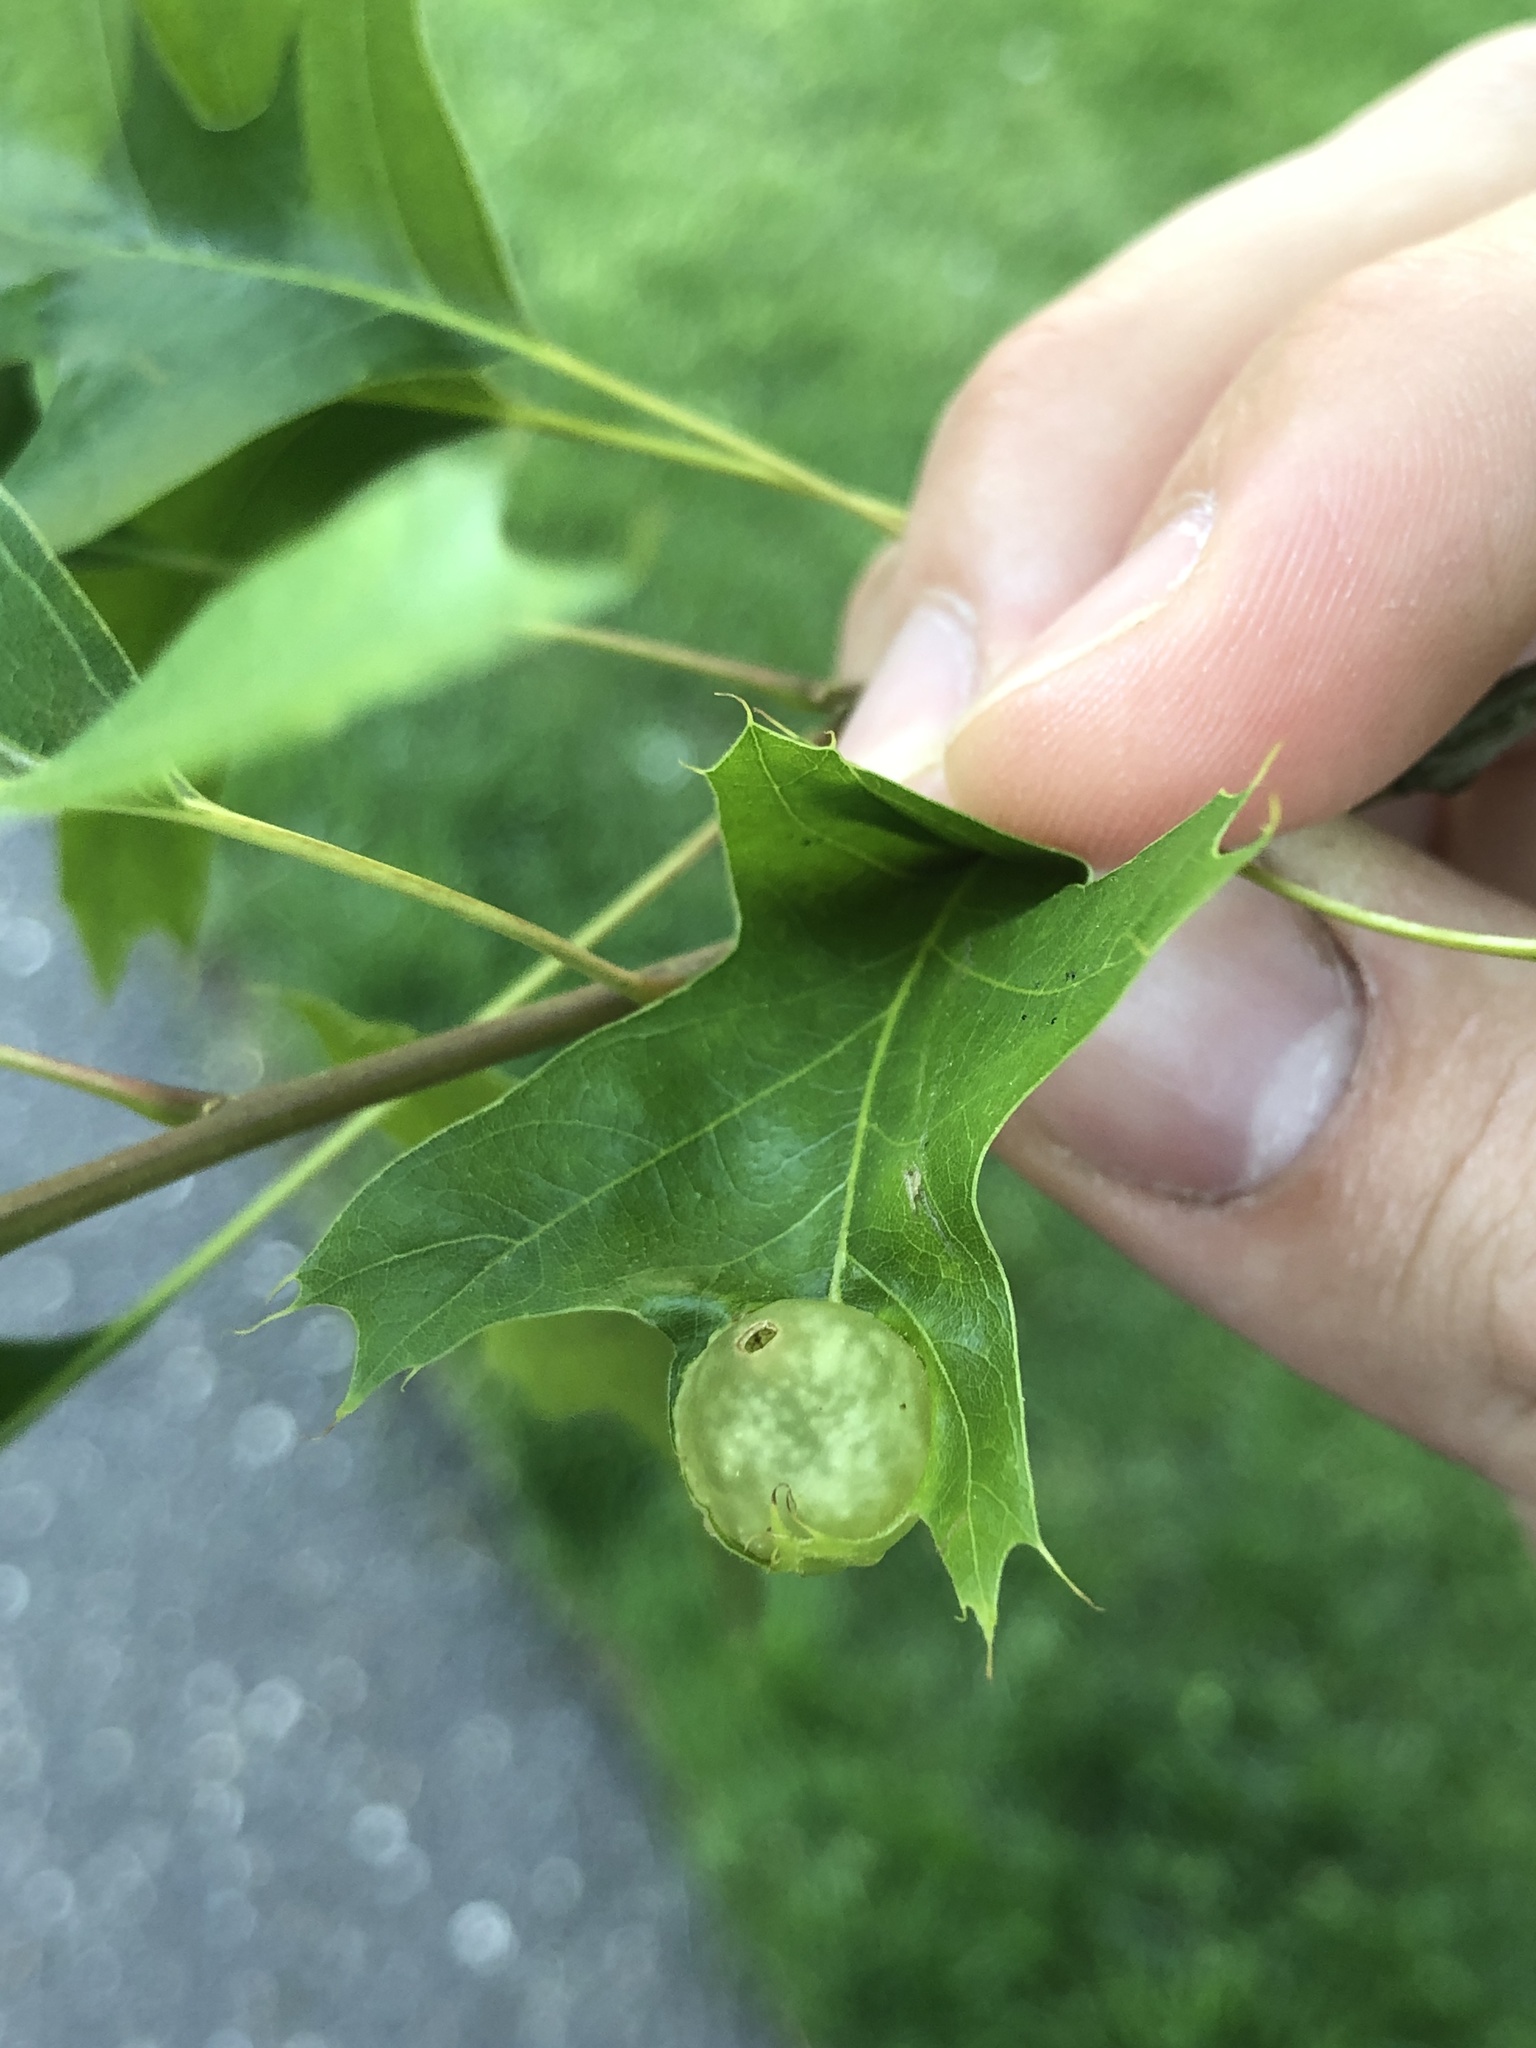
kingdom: Animalia
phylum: Arthropoda
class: Insecta
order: Hymenoptera
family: Cynipidae
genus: Dryocosmus
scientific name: Dryocosmus quercuspalustris
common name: Succulent oak gall wasp
